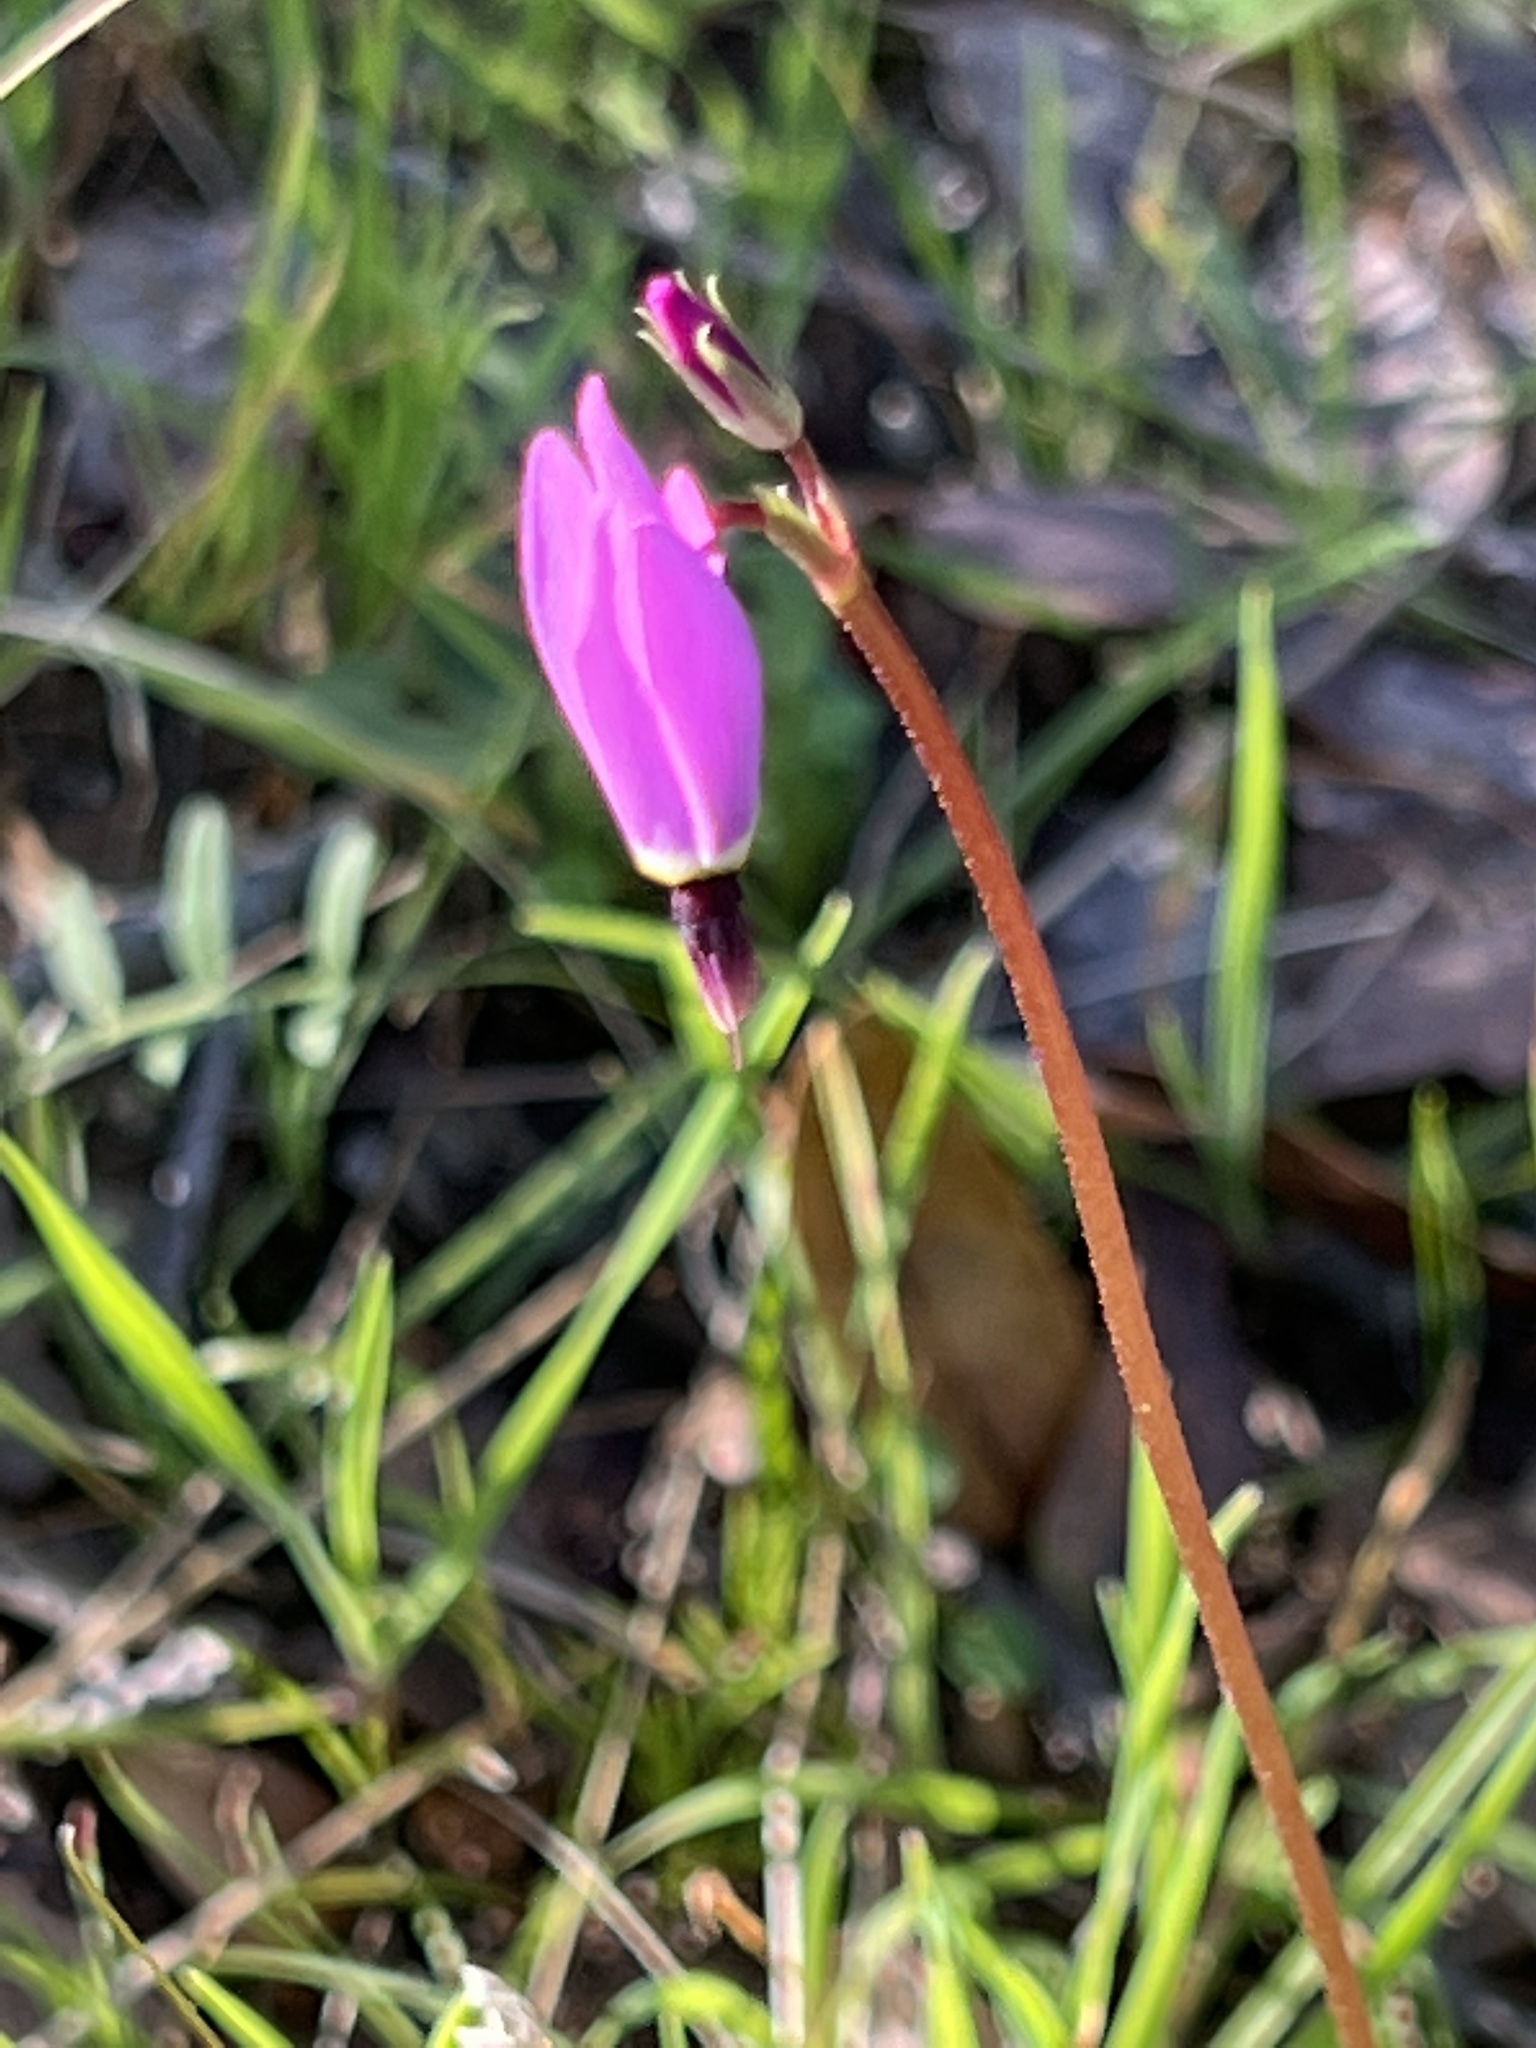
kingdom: Plantae
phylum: Tracheophyta
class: Magnoliopsida
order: Ericales
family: Primulaceae
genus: Dodecatheon
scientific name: Dodecatheon hendersonii
